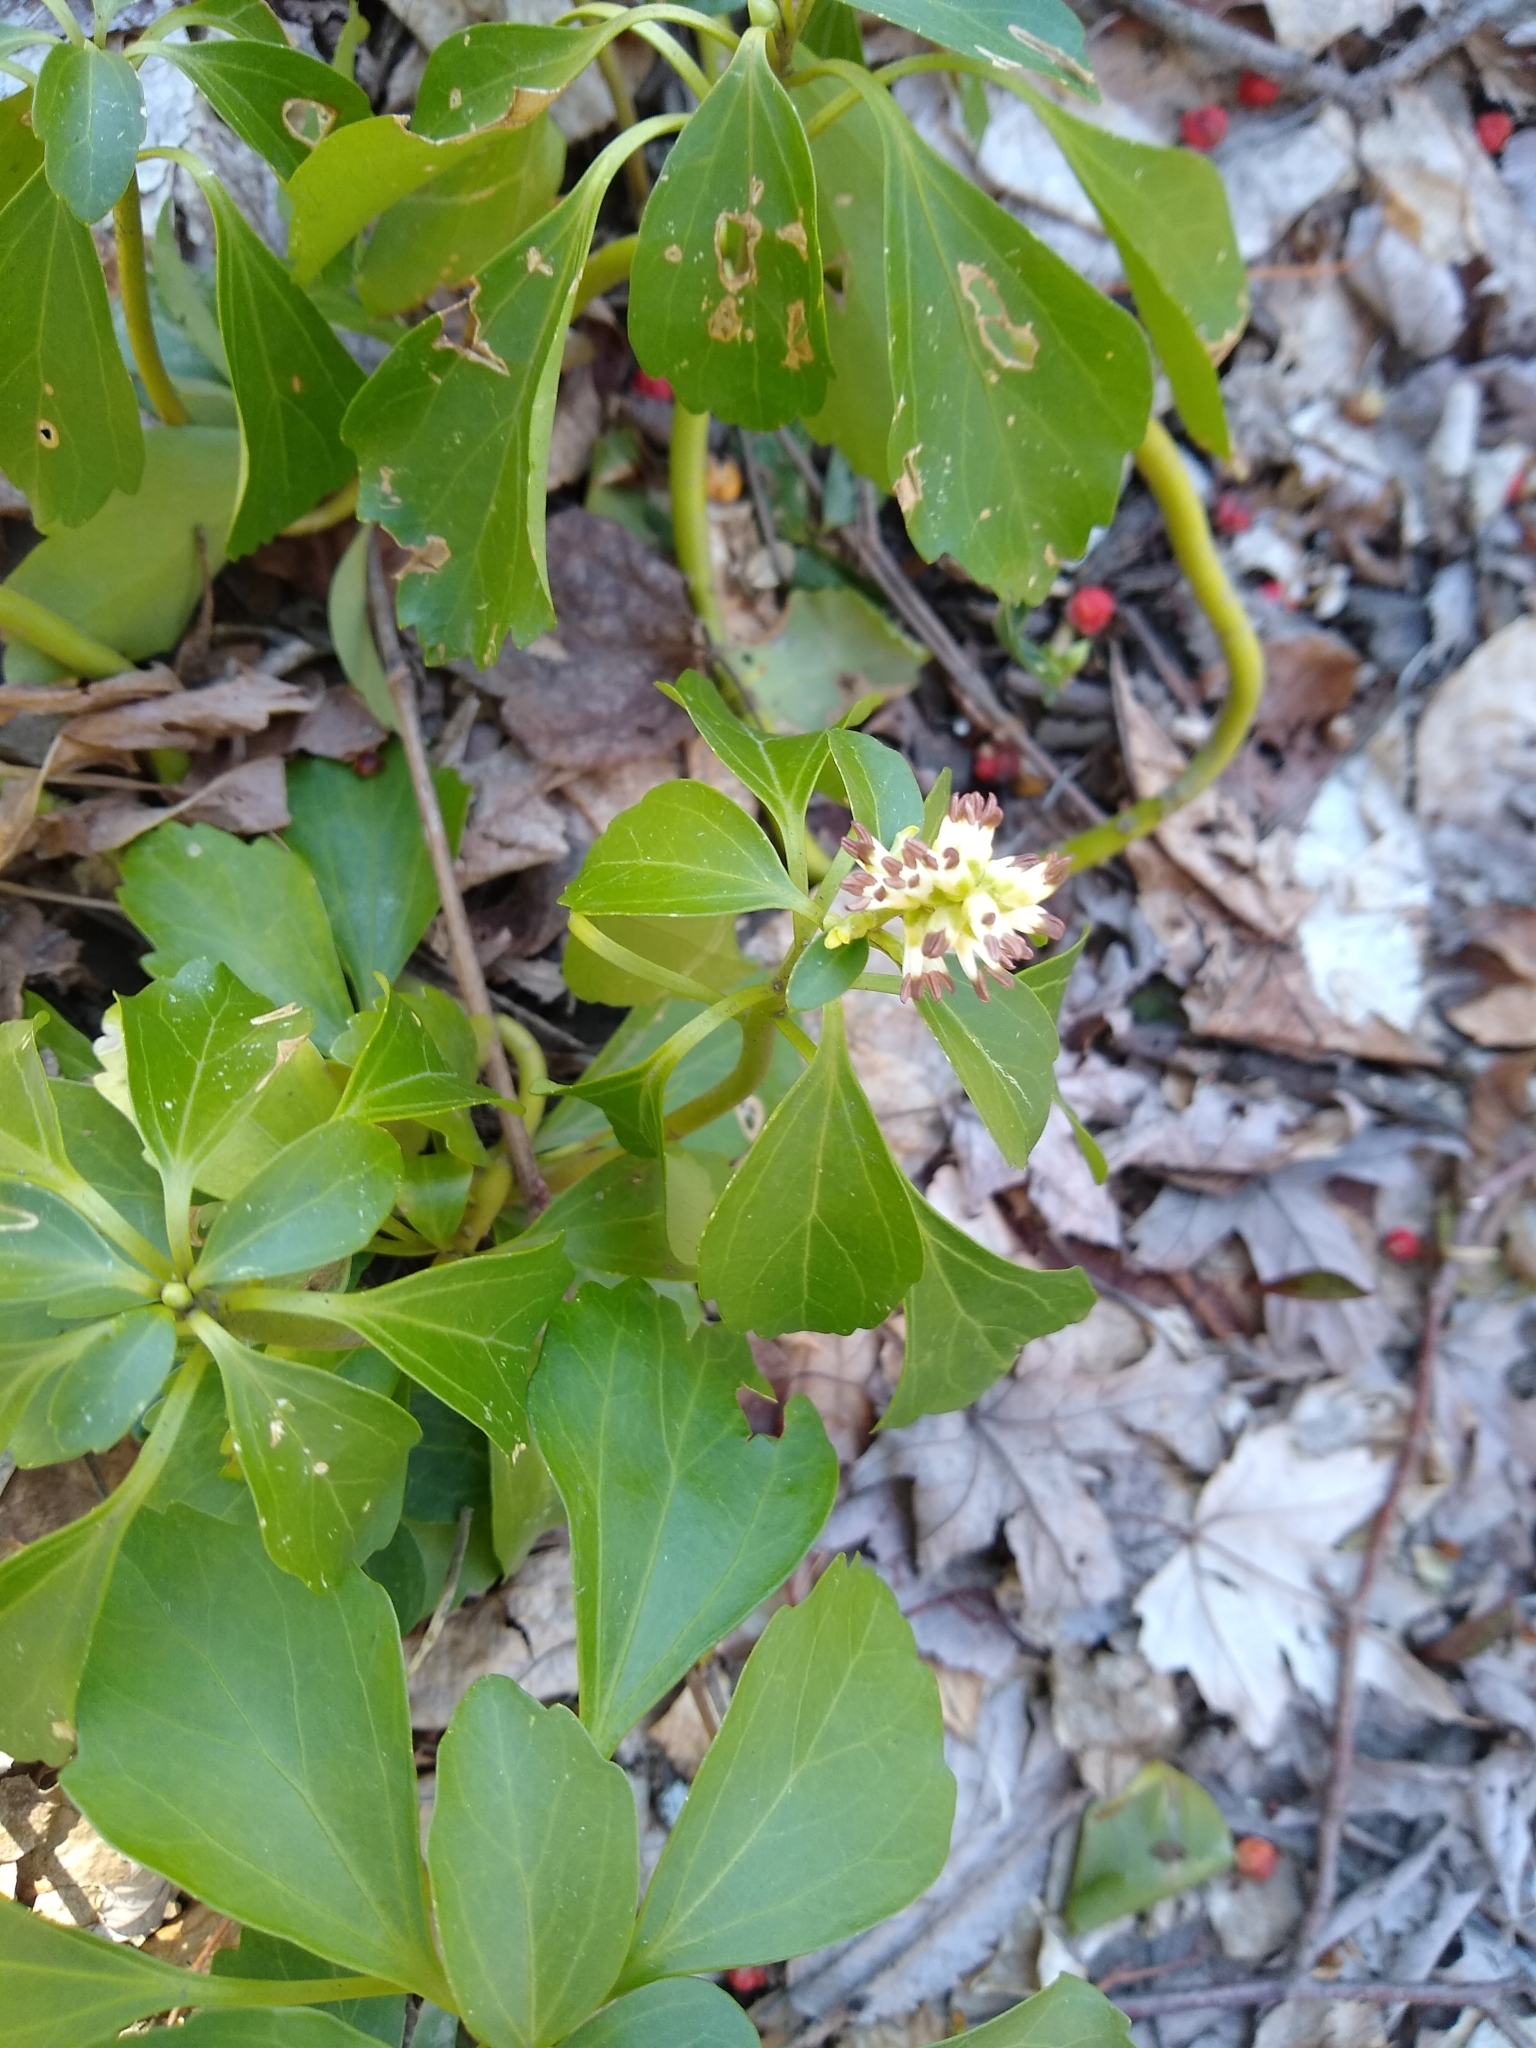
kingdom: Plantae
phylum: Tracheophyta
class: Magnoliopsida
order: Buxales
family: Buxaceae
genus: Pachysandra
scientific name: Pachysandra terminalis
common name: Japanese pachysandra
